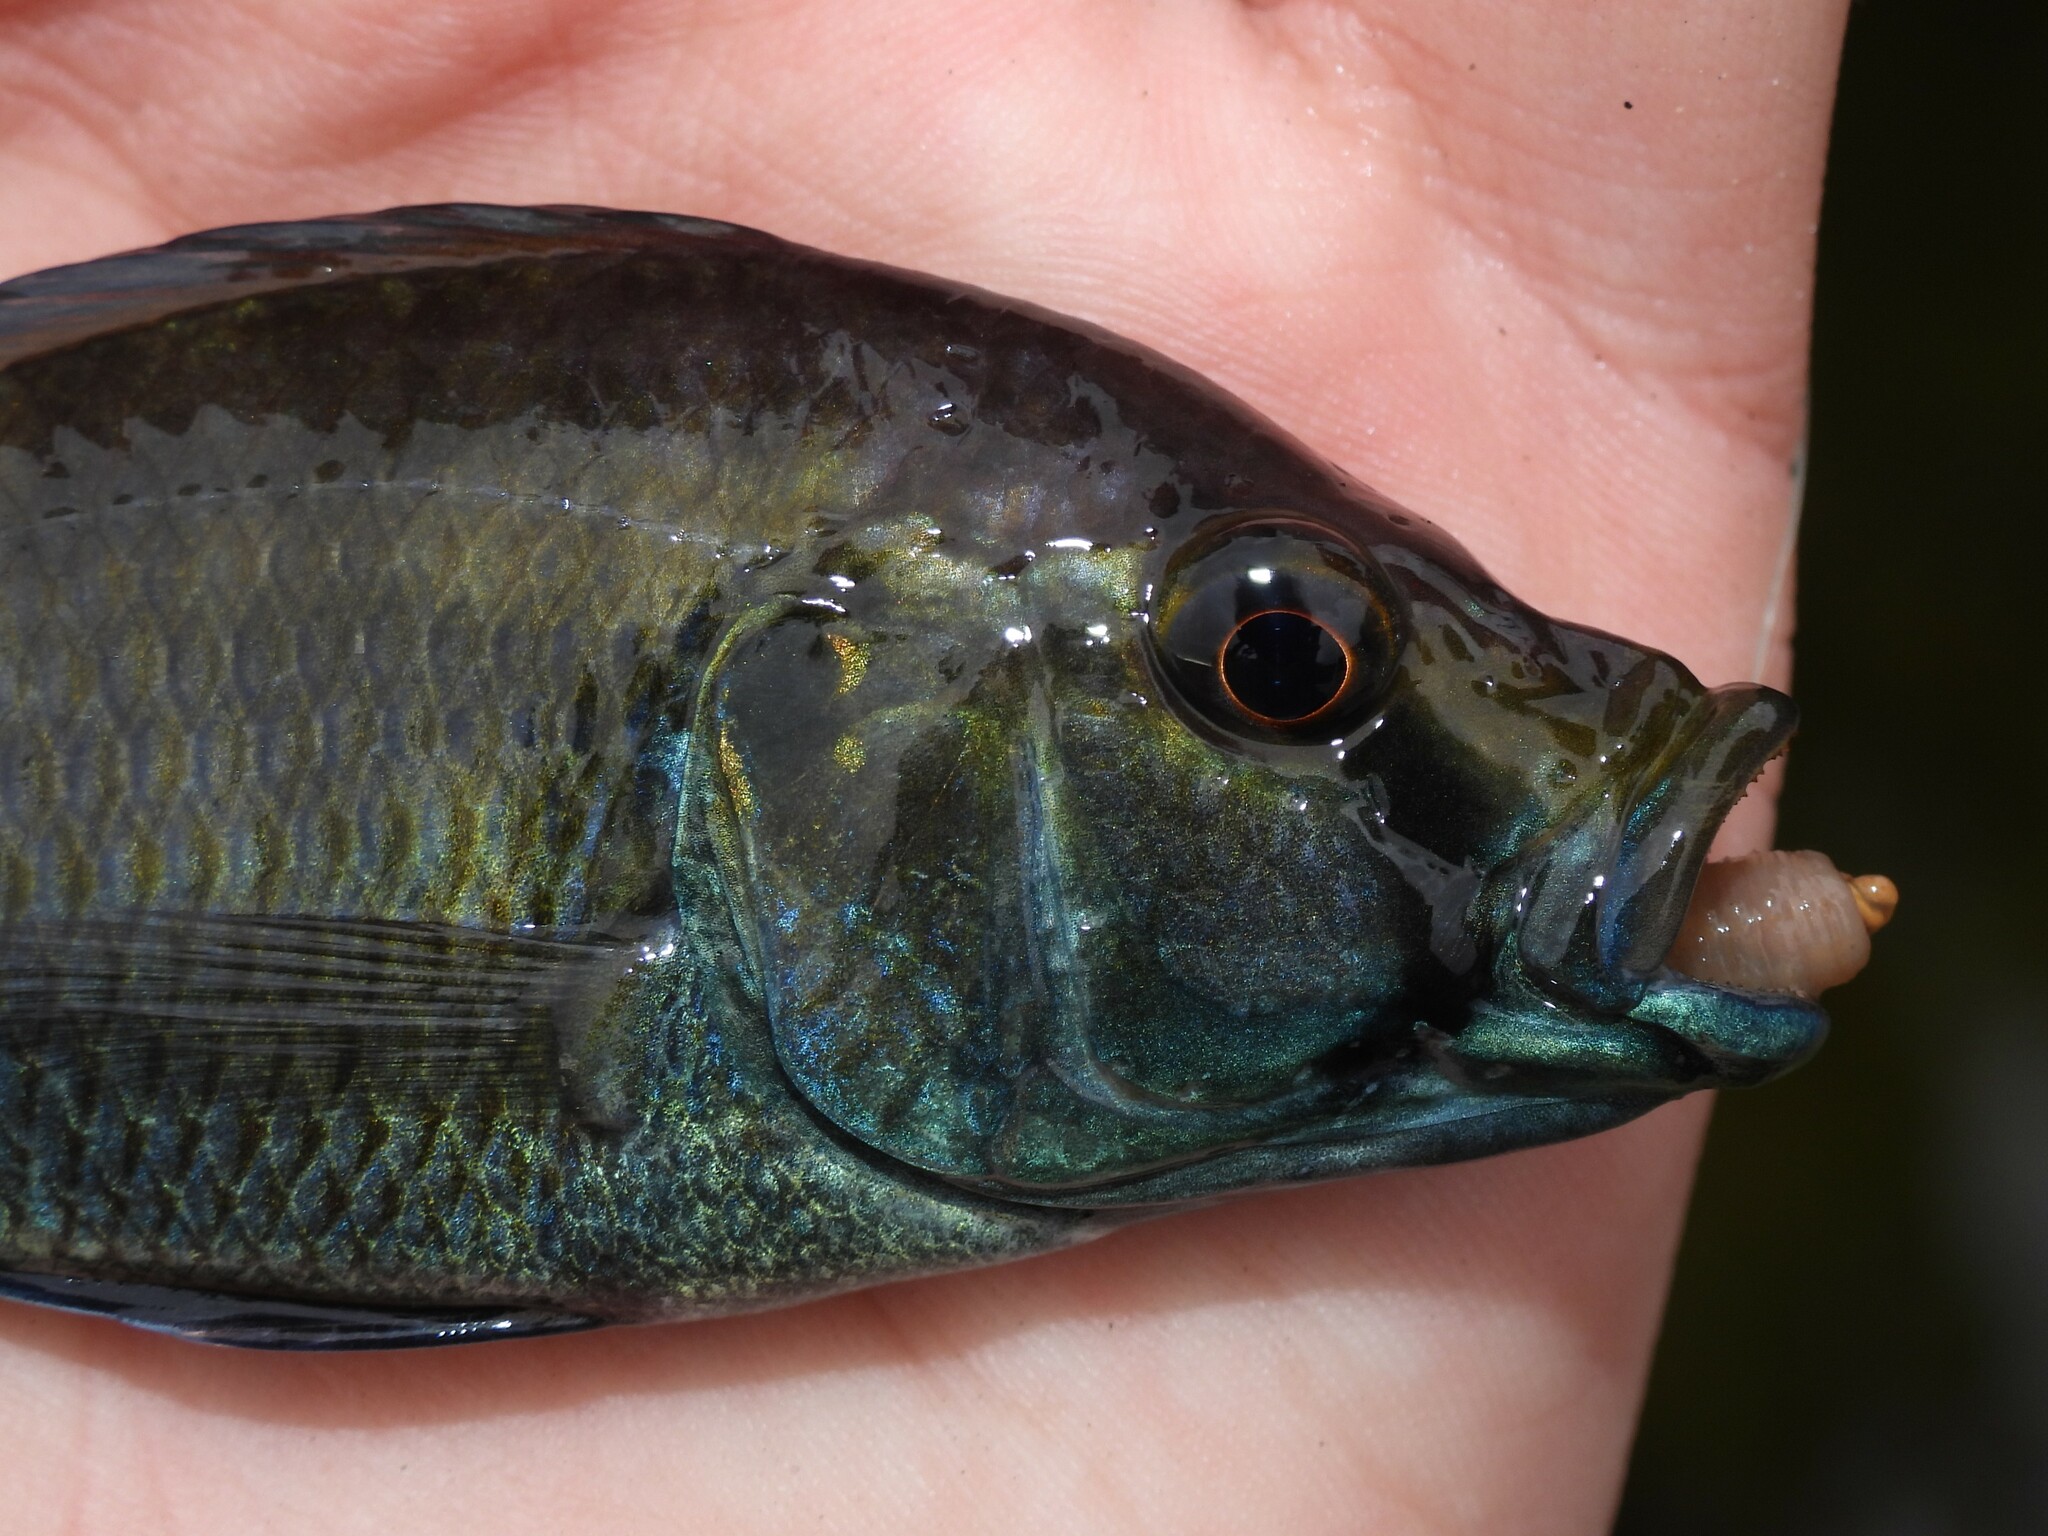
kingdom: Animalia
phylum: Chordata
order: Perciformes
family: Cichlidae
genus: Astatotilapia
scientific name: Astatotilapia calliptera
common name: Eastern happy
